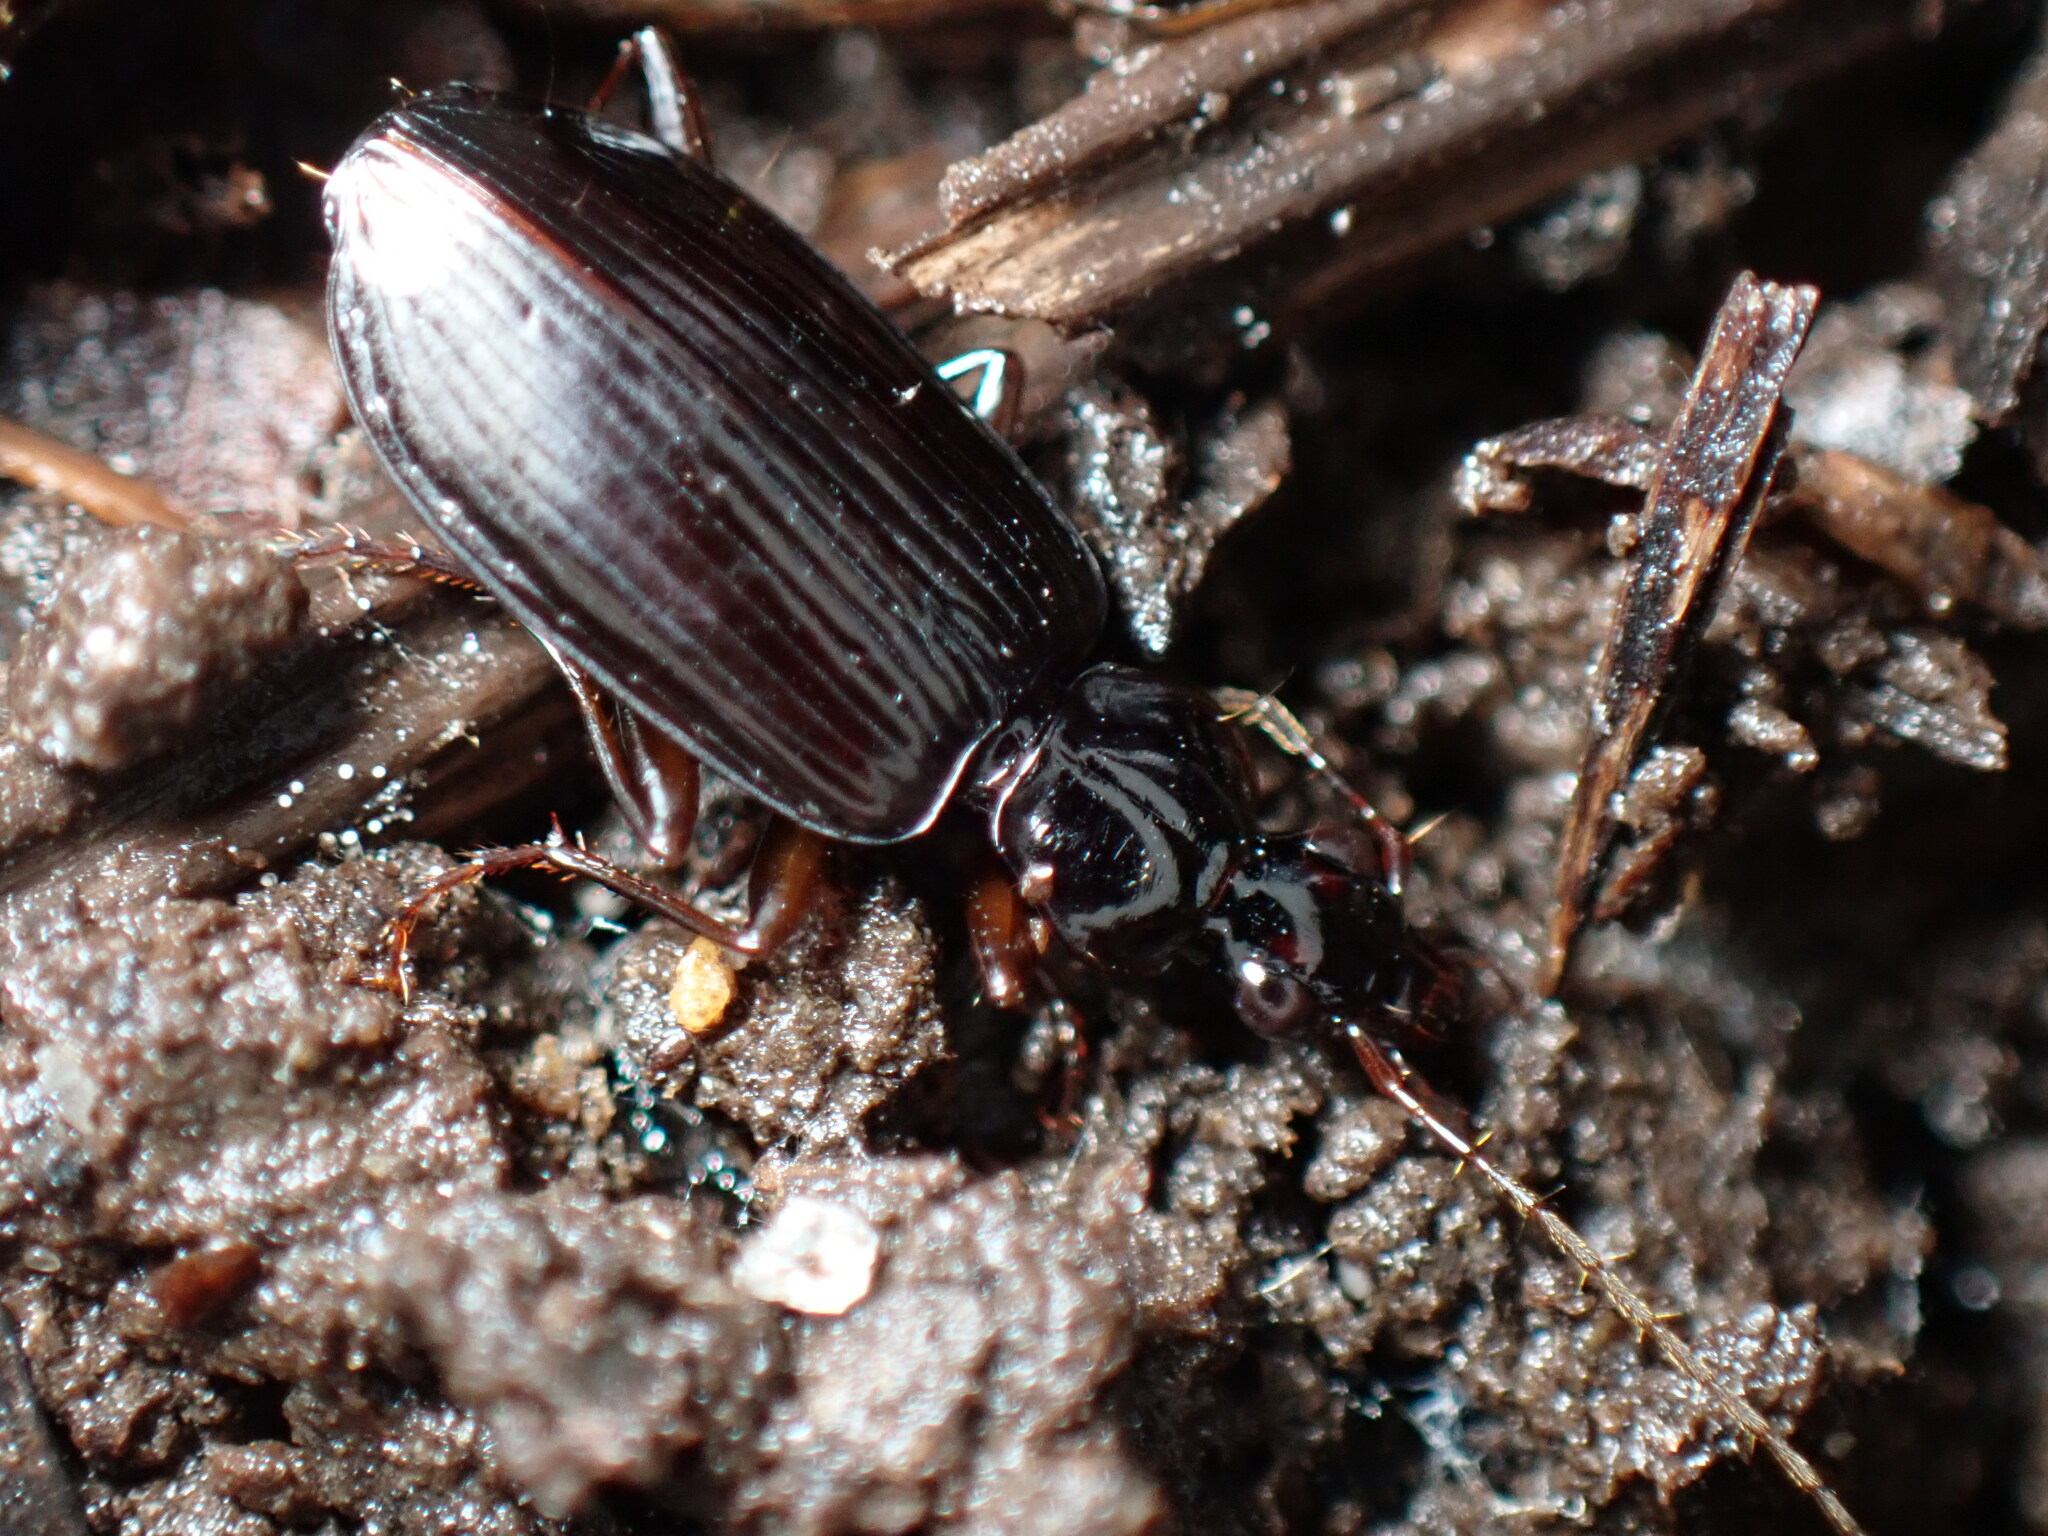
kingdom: Animalia
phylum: Arthropoda
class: Insecta
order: Coleoptera
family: Carabidae
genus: Dromius
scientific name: Dromius piceus
